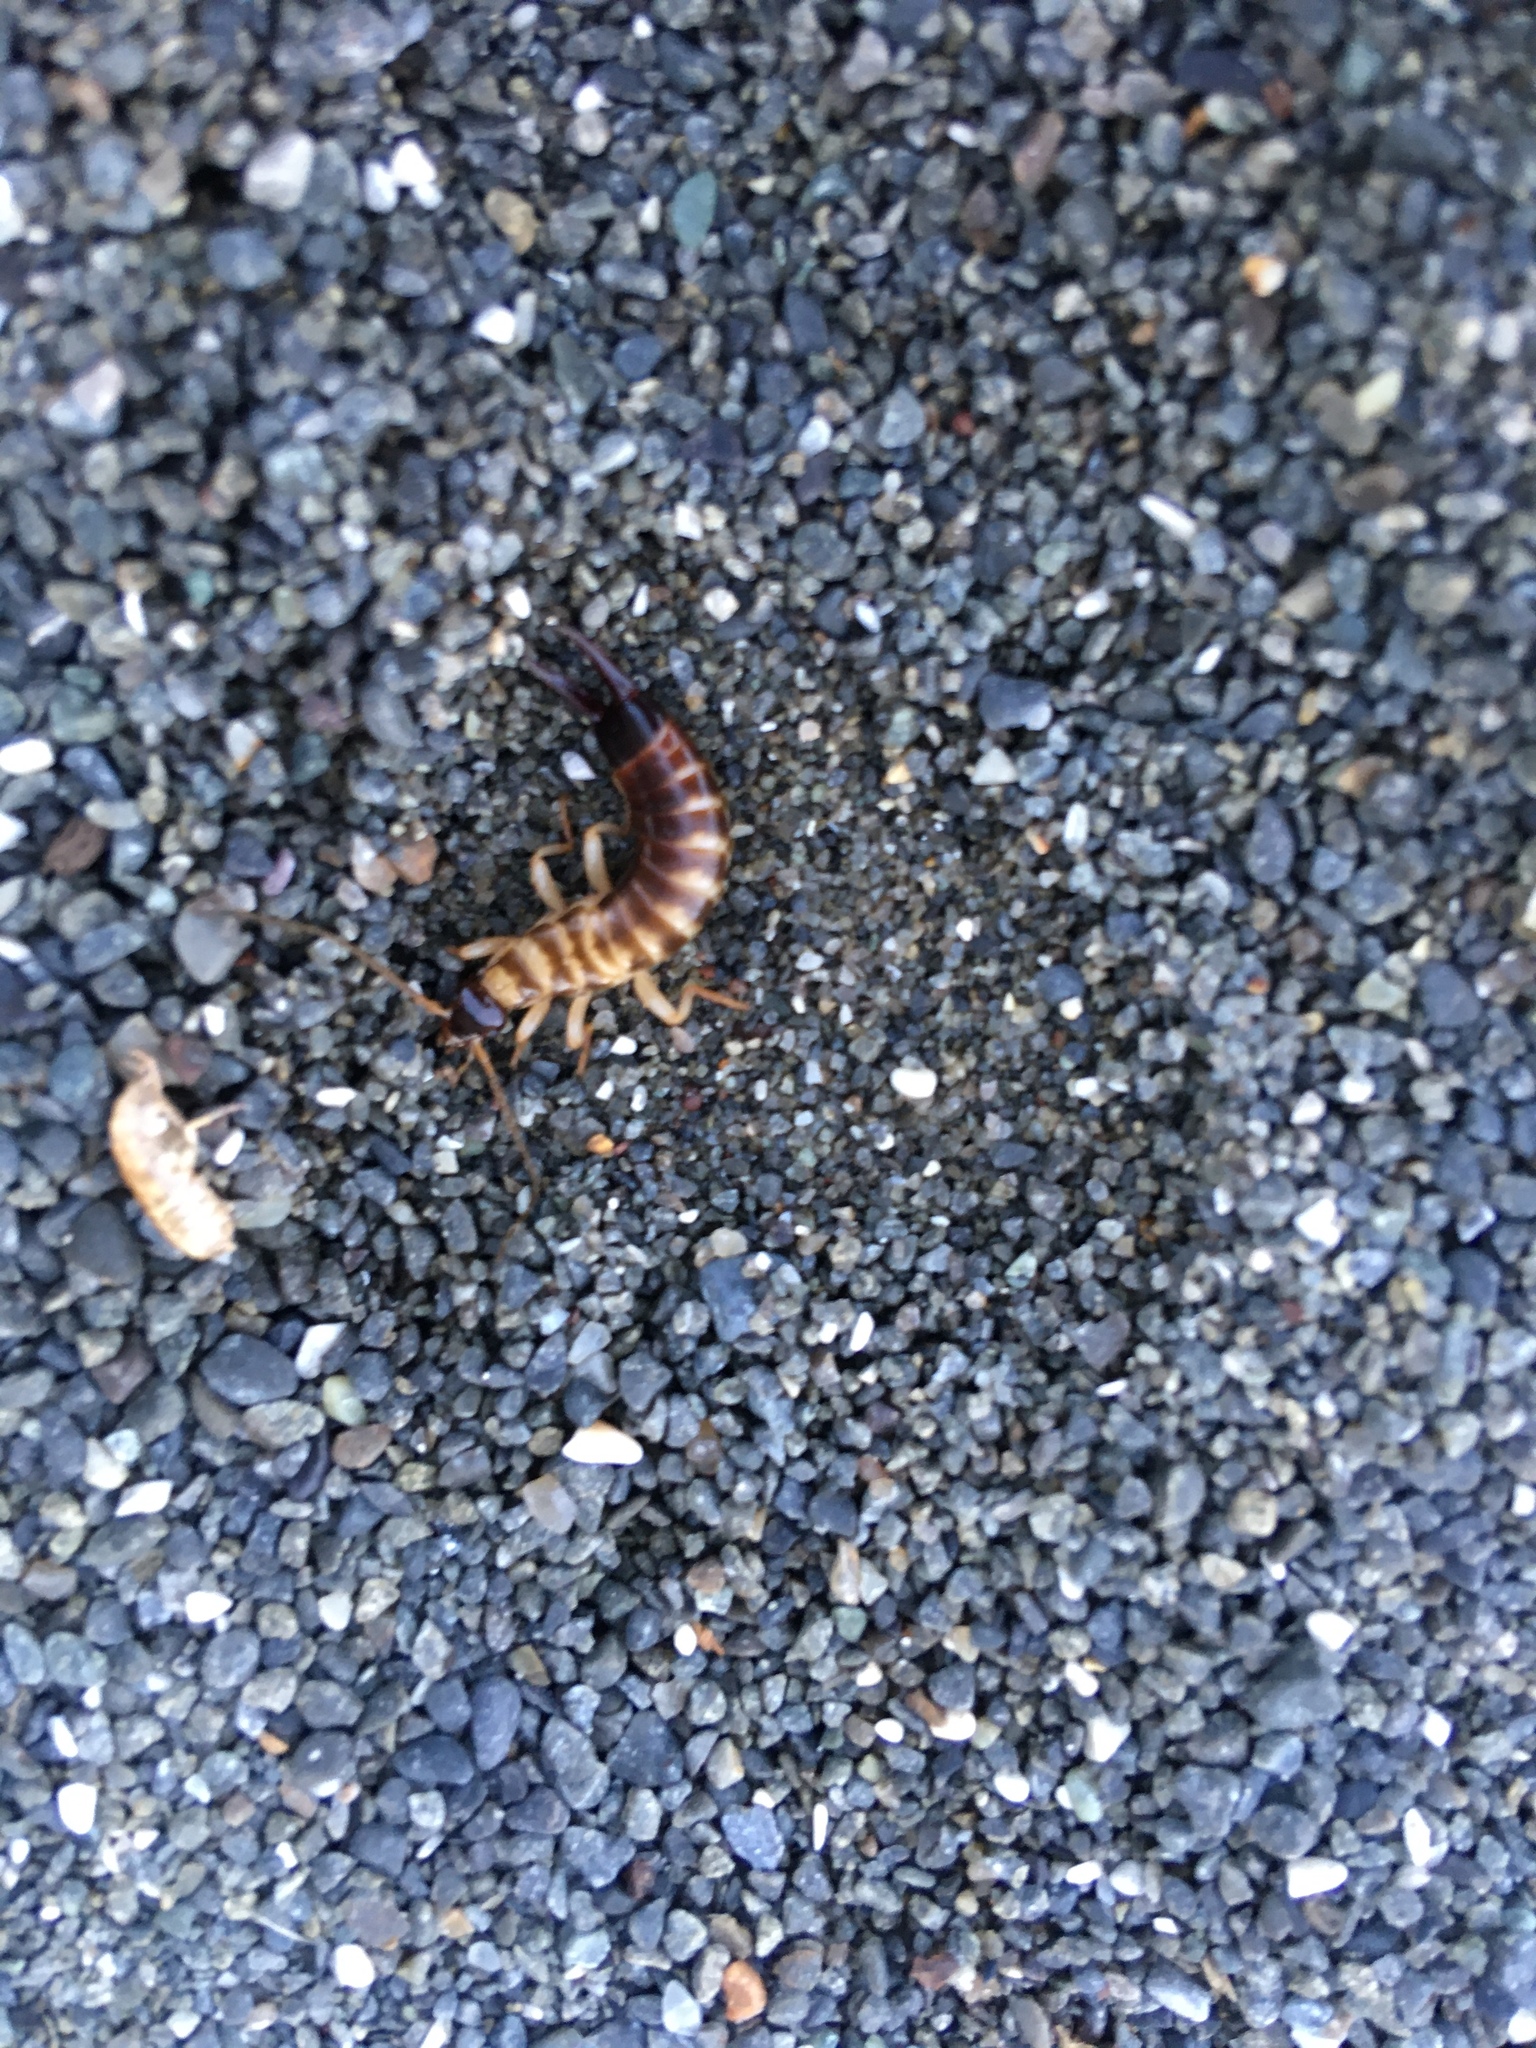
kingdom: Animalia
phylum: Arthropoda
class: Insecta
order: Dermaptera
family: Anisolabididae
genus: Anisolabis
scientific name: Anisolabis littorea
